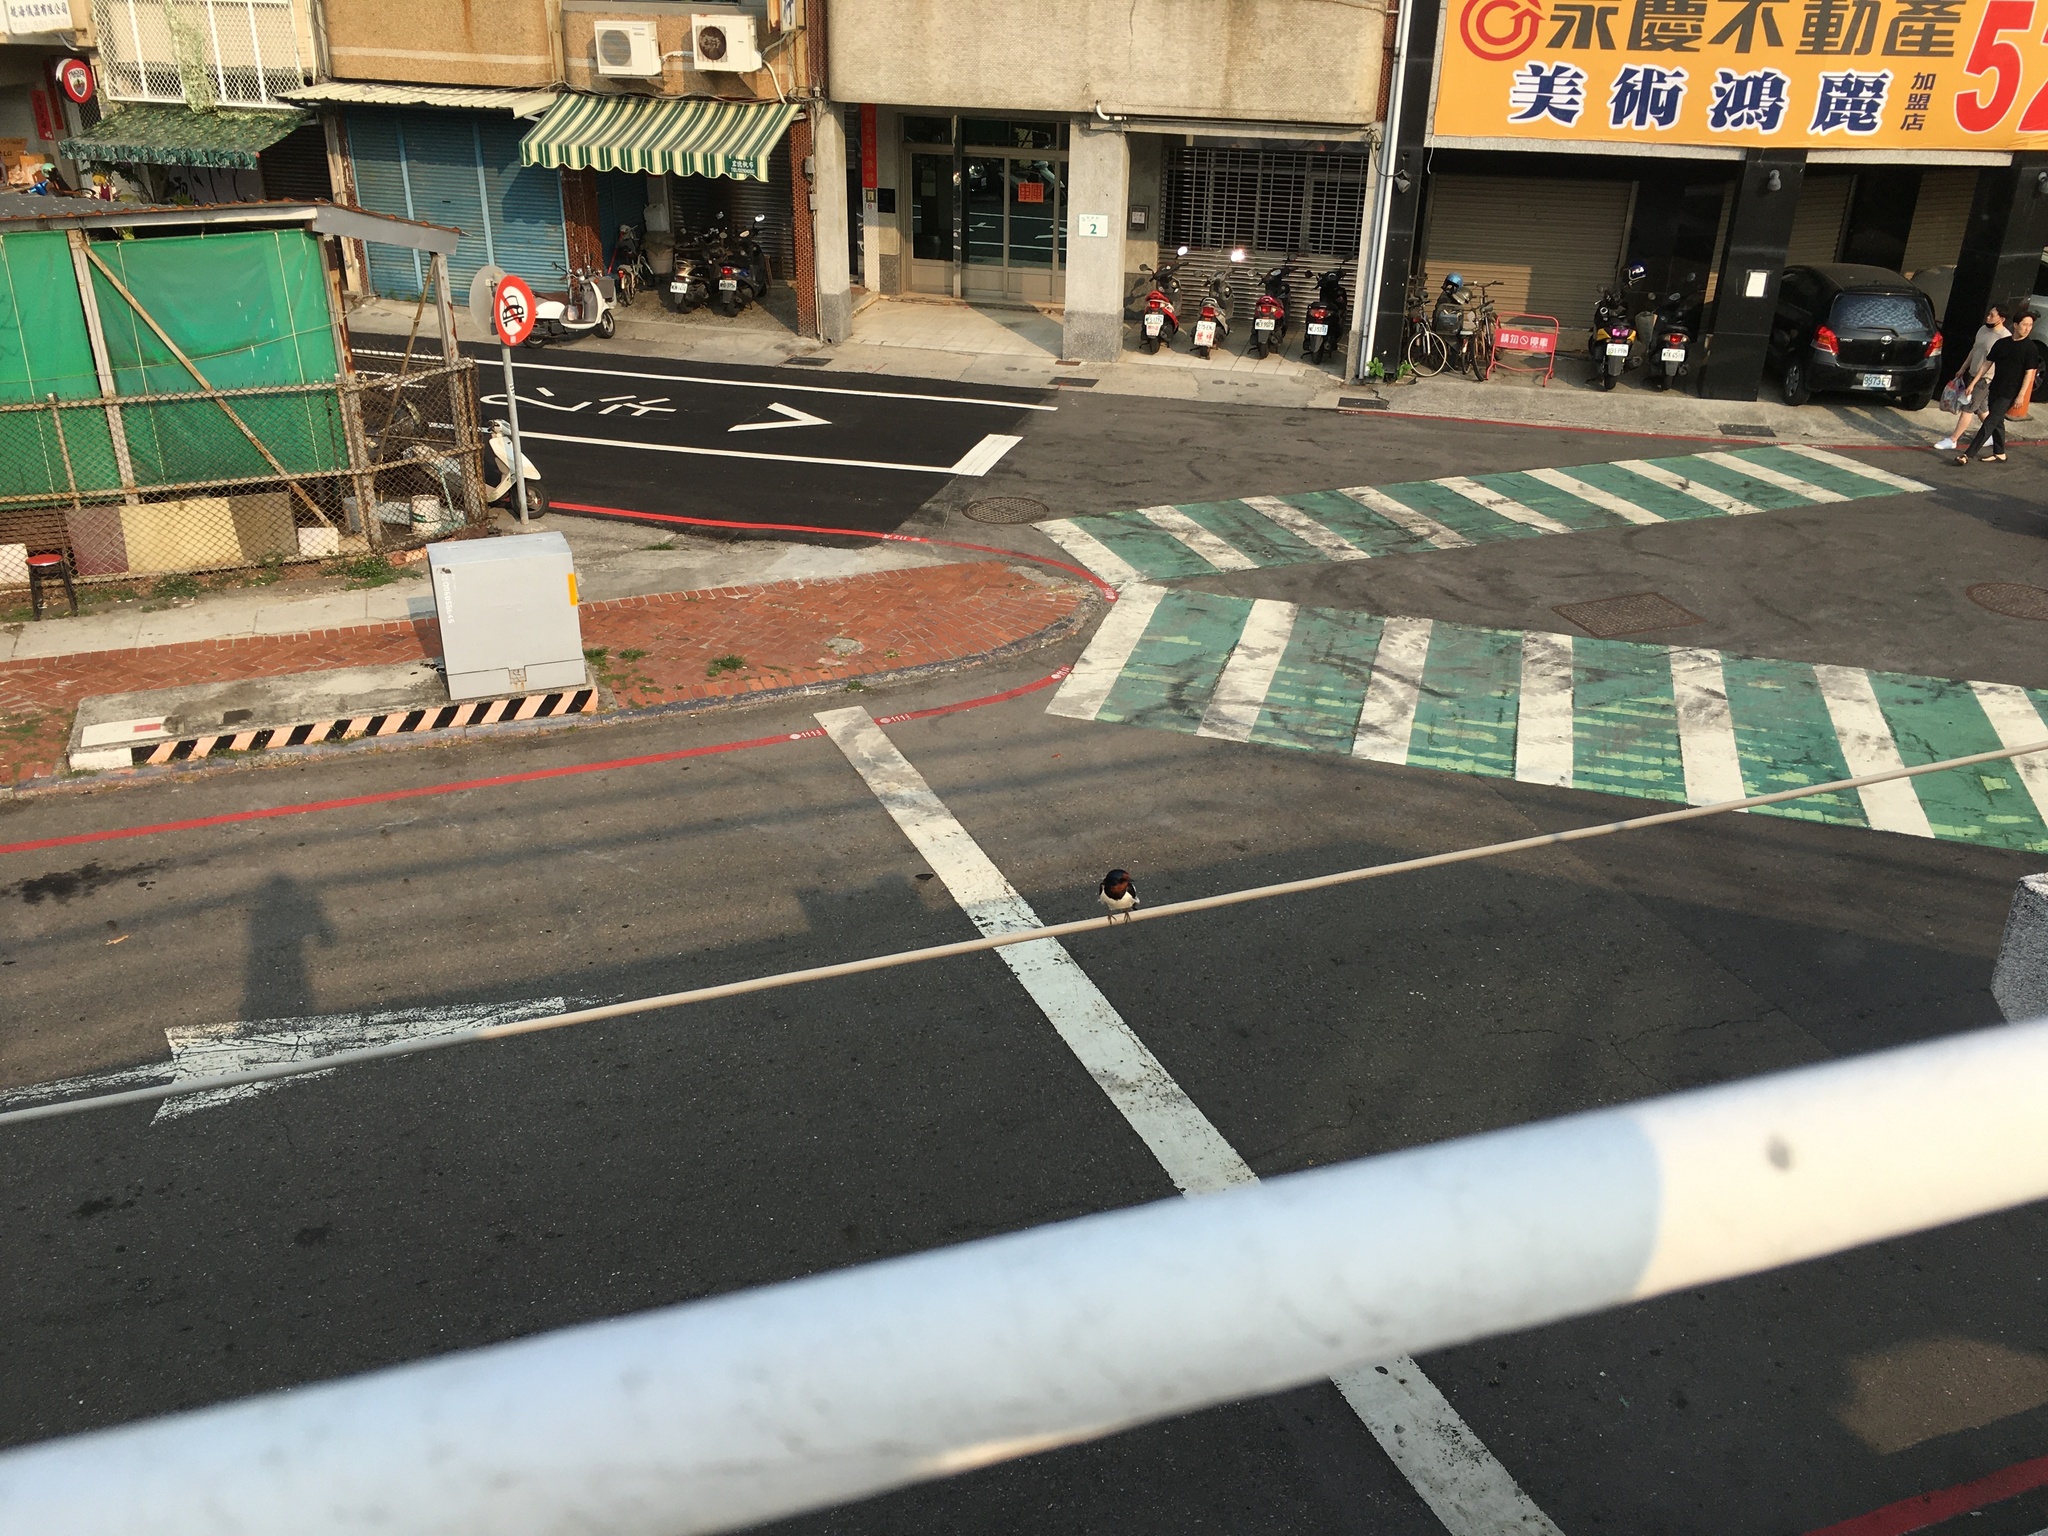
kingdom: Animalia
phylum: Chordata
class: Aves
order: Passeriformes
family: Hirundinidae
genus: Hirundo
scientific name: Hirundo rustica
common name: Barn swallow
